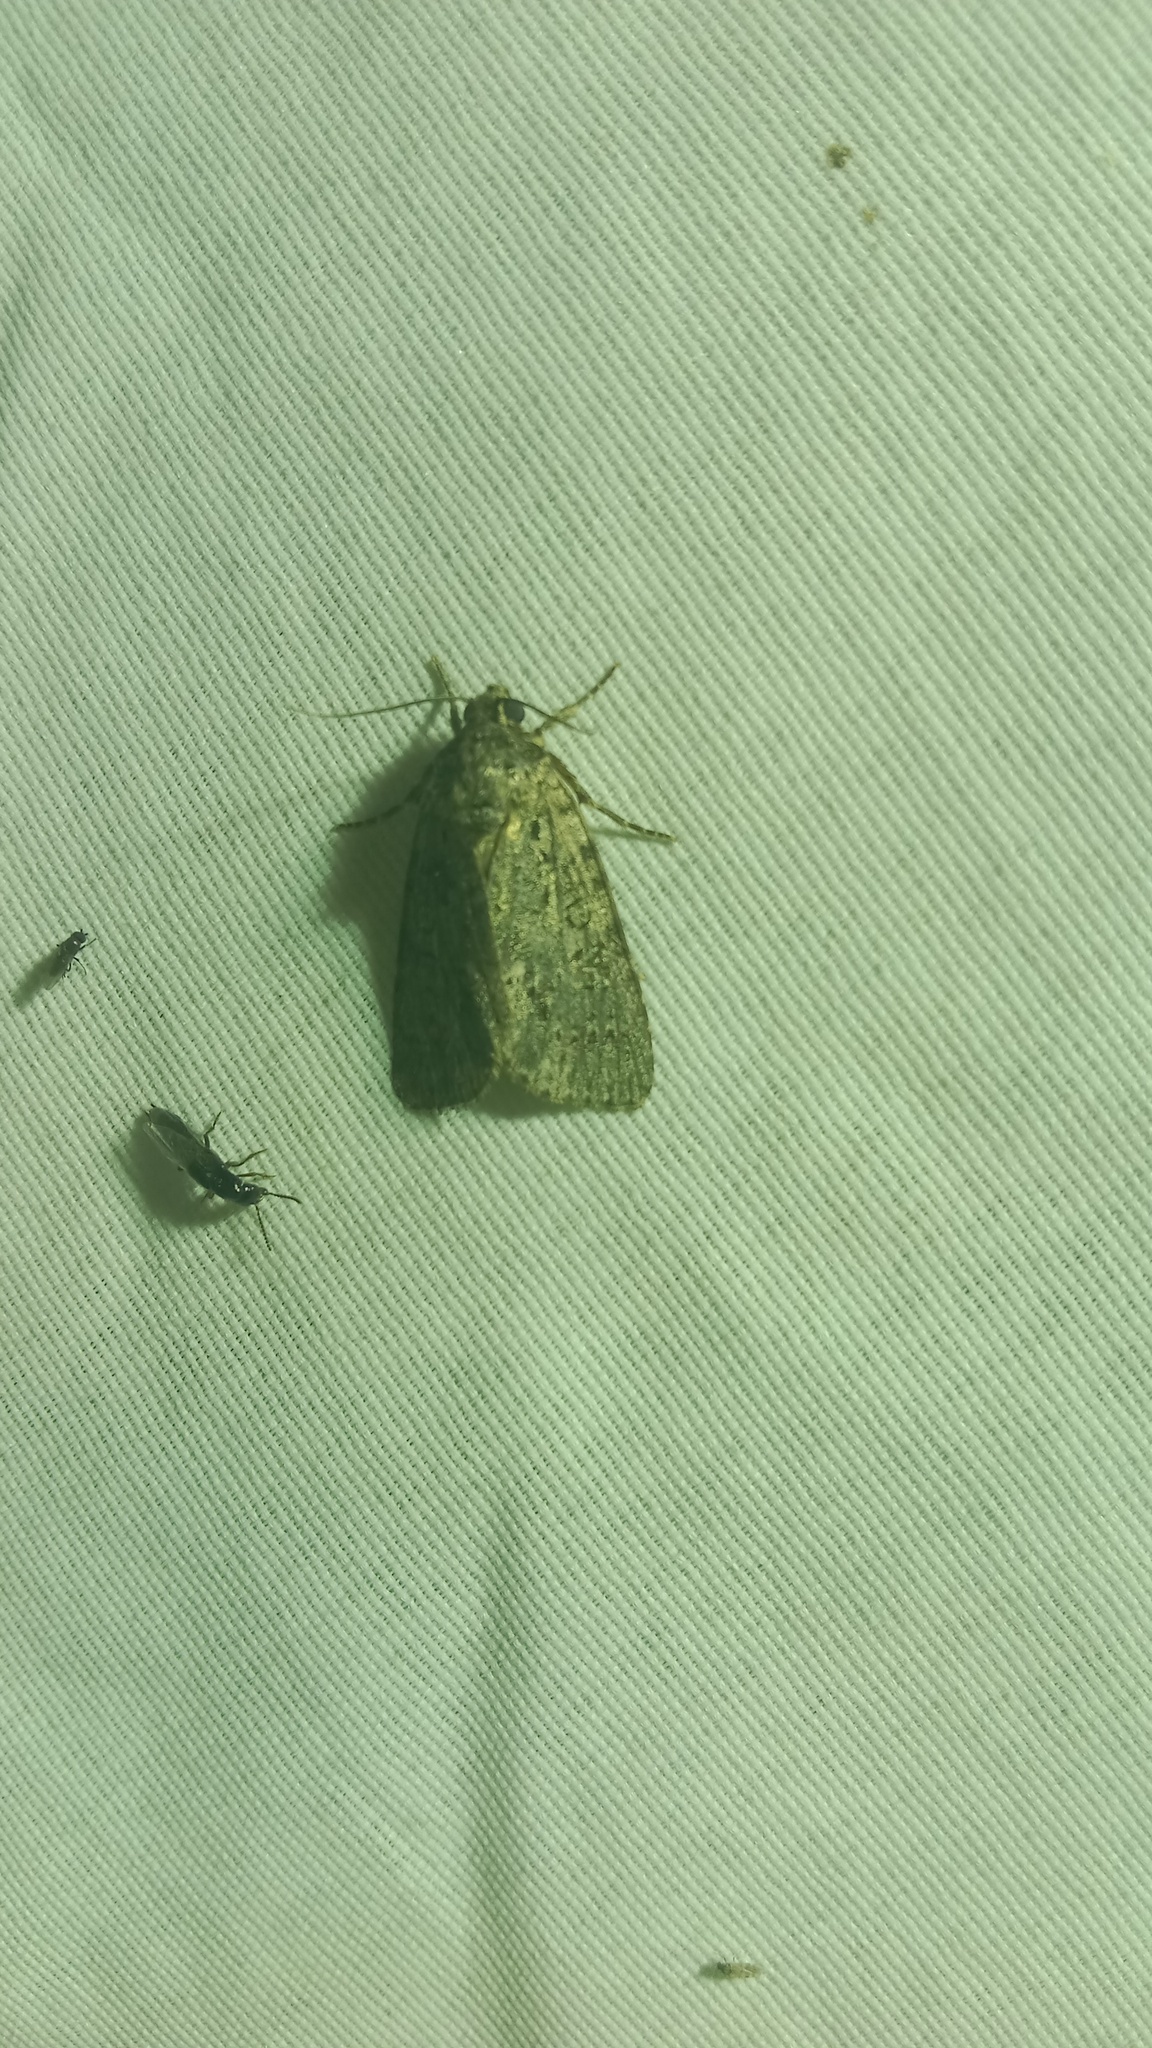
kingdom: Animalia
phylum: Arthropoda
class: Insecta
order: Lepidoptera
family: Noctuidae
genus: Acronicta
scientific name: Acronicta rumicis
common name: Knot grass
